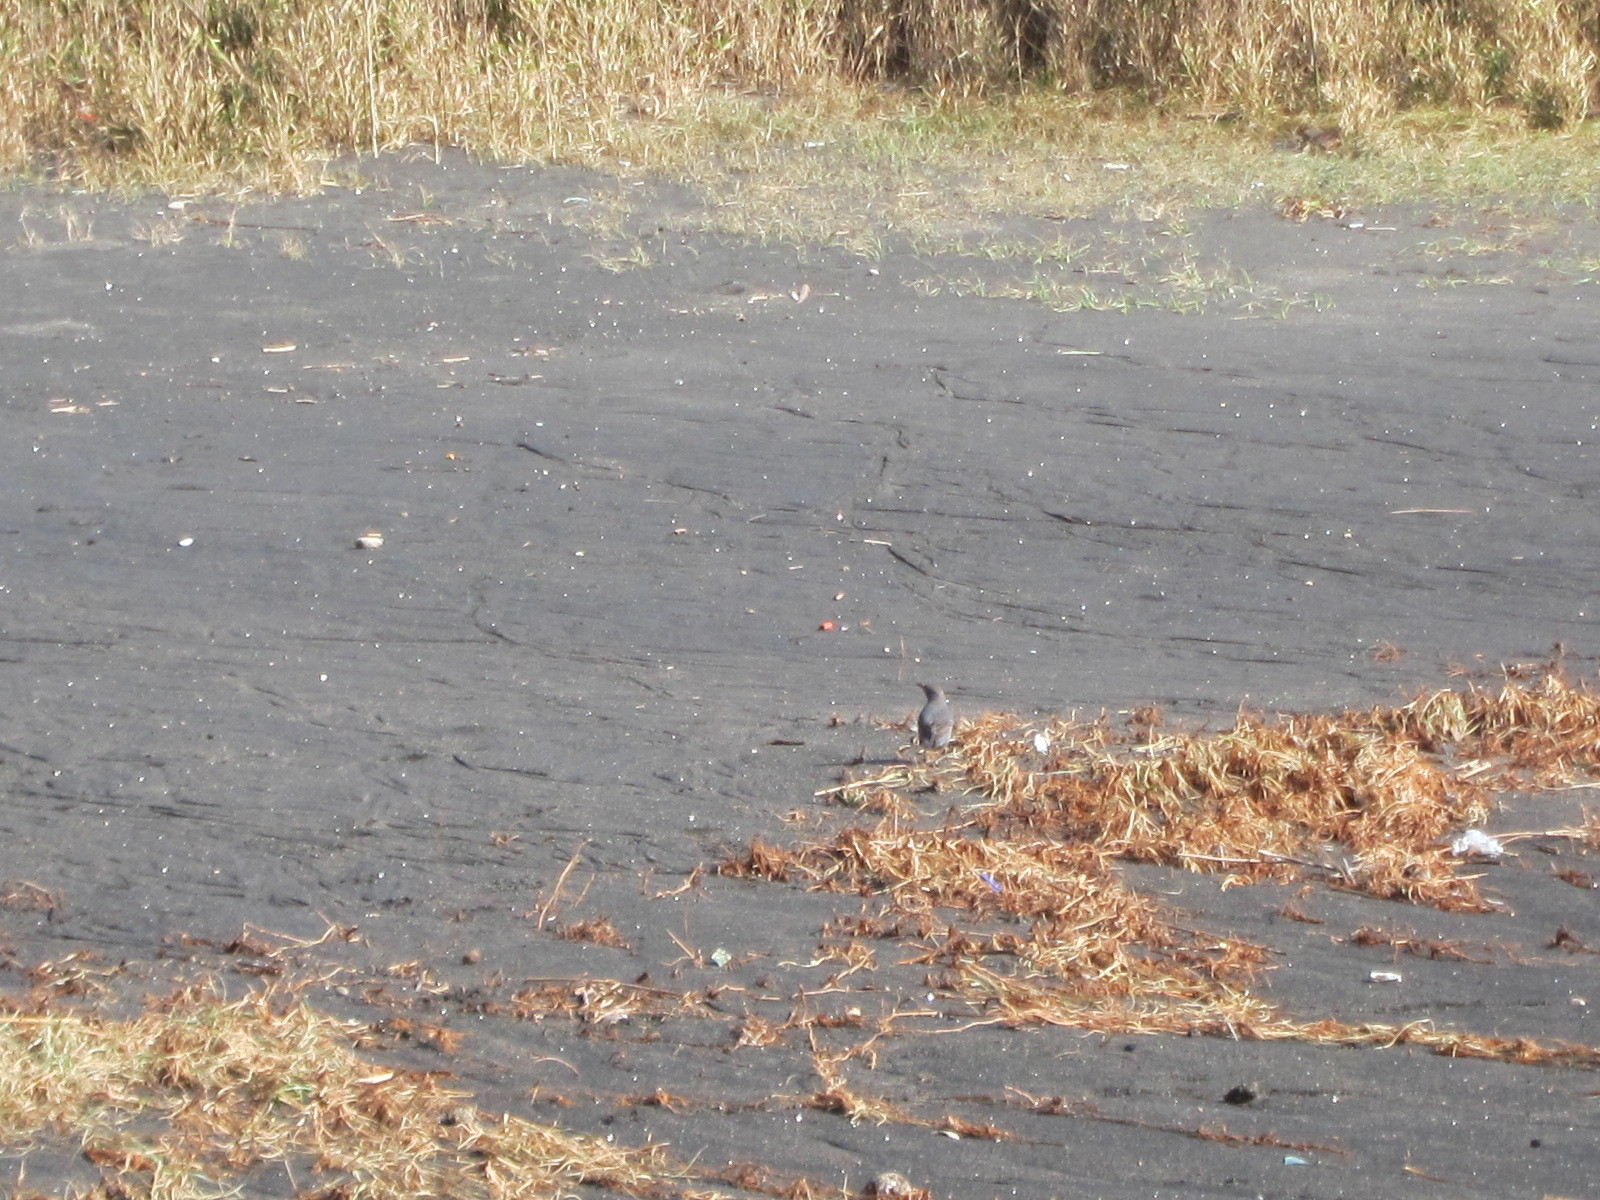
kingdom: Animalia
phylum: Chordata
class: Aves
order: Passeriformes
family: Muscicapidae
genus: Monticola
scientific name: Monticola solitarius
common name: Blue rock thrush
